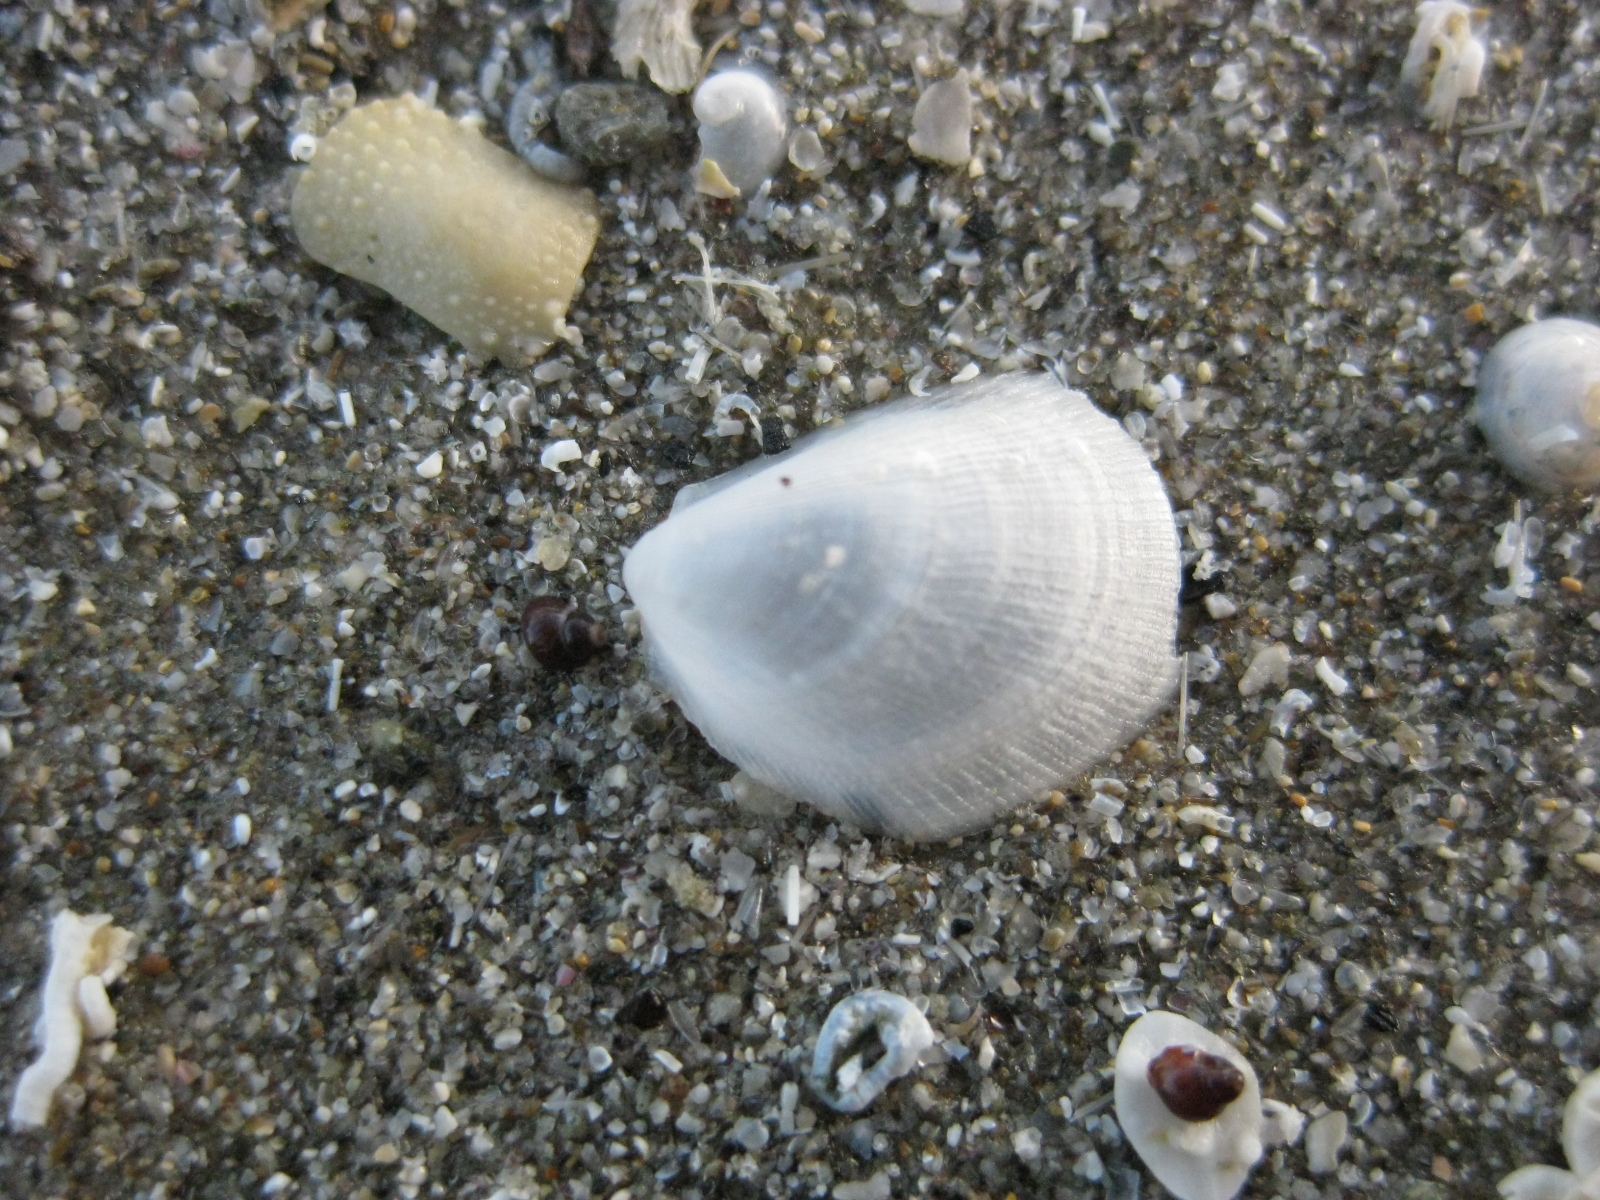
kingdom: Animalia
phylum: Mollusca
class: Bivalvia
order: Limida
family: Limidae
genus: Limaria
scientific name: Limaria orientalis
